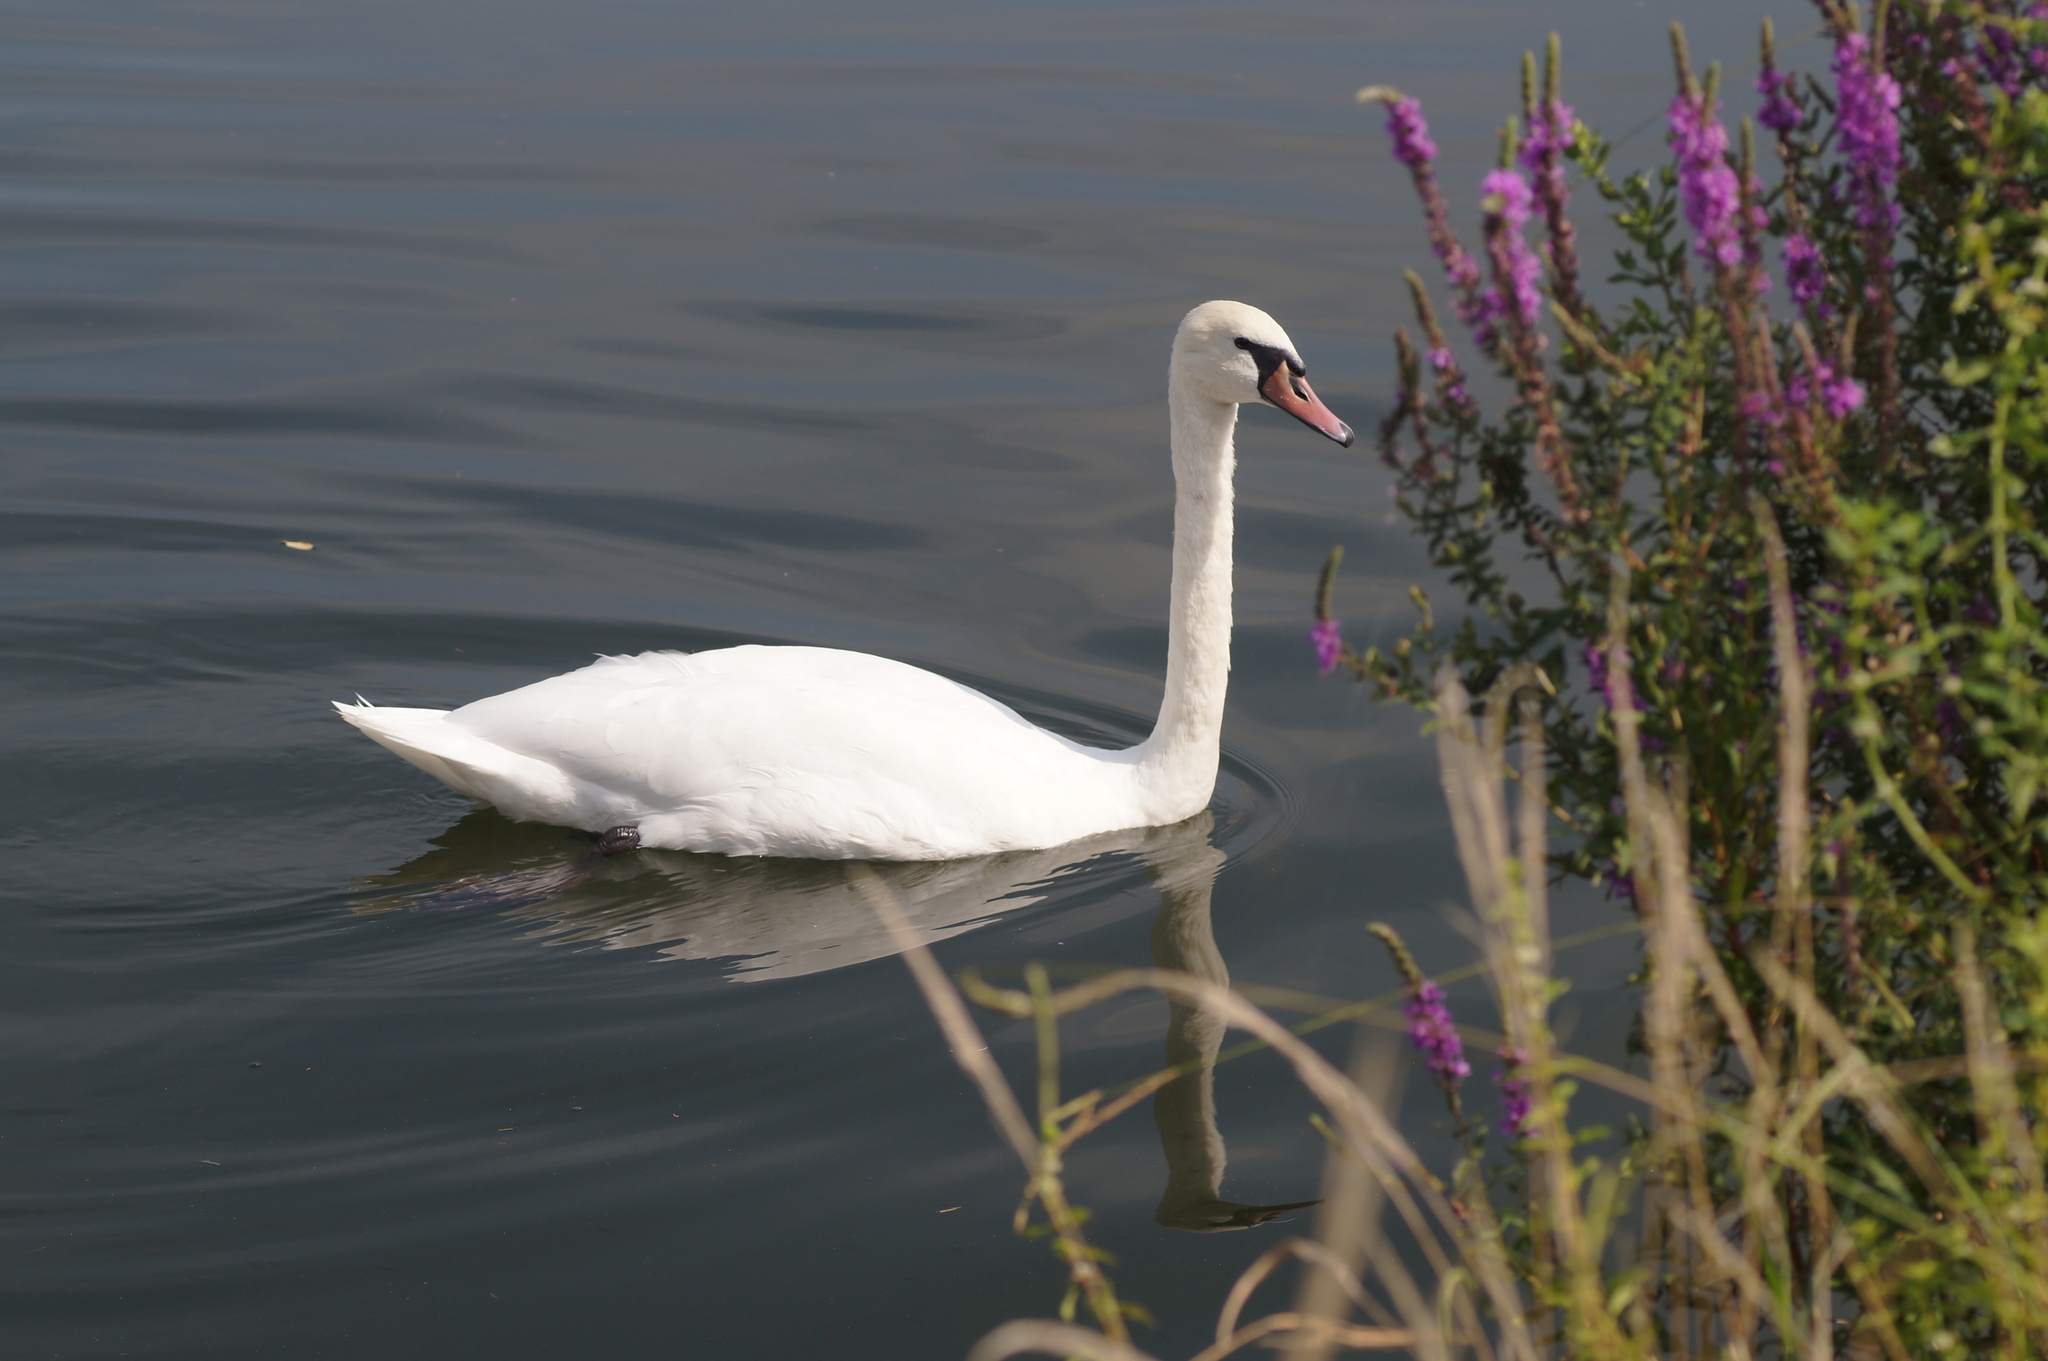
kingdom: Animalia
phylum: Chordata
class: Aves
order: Anseriformes
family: Anatidae
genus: Cygnus
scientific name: Cygnus olor
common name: Mute swan
